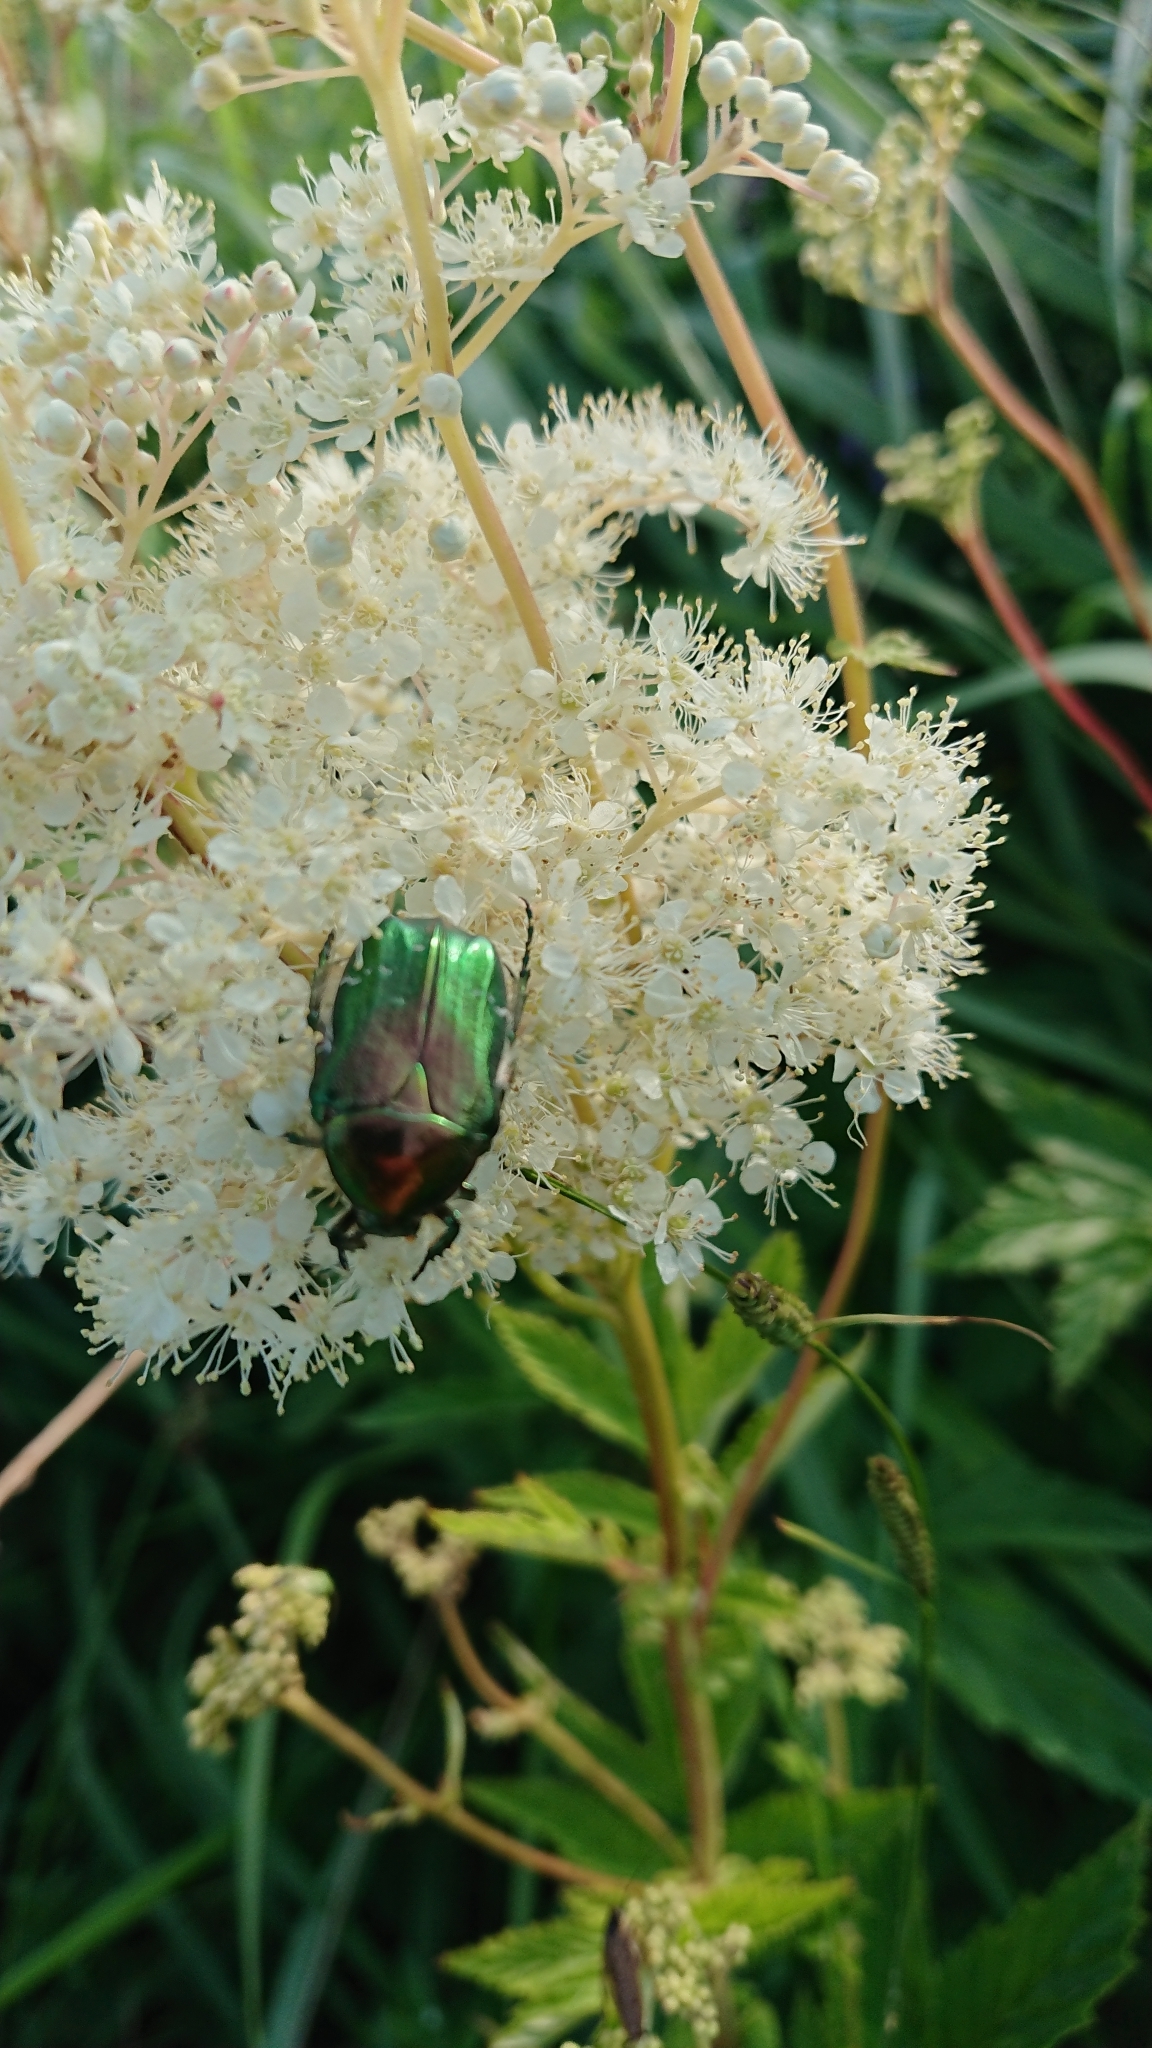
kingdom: Animalia
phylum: Arthropoda
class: Insecta
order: Coleoptera
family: Scarabaeidae
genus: Cetonia
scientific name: Cetonia aurata
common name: Rose chafer
